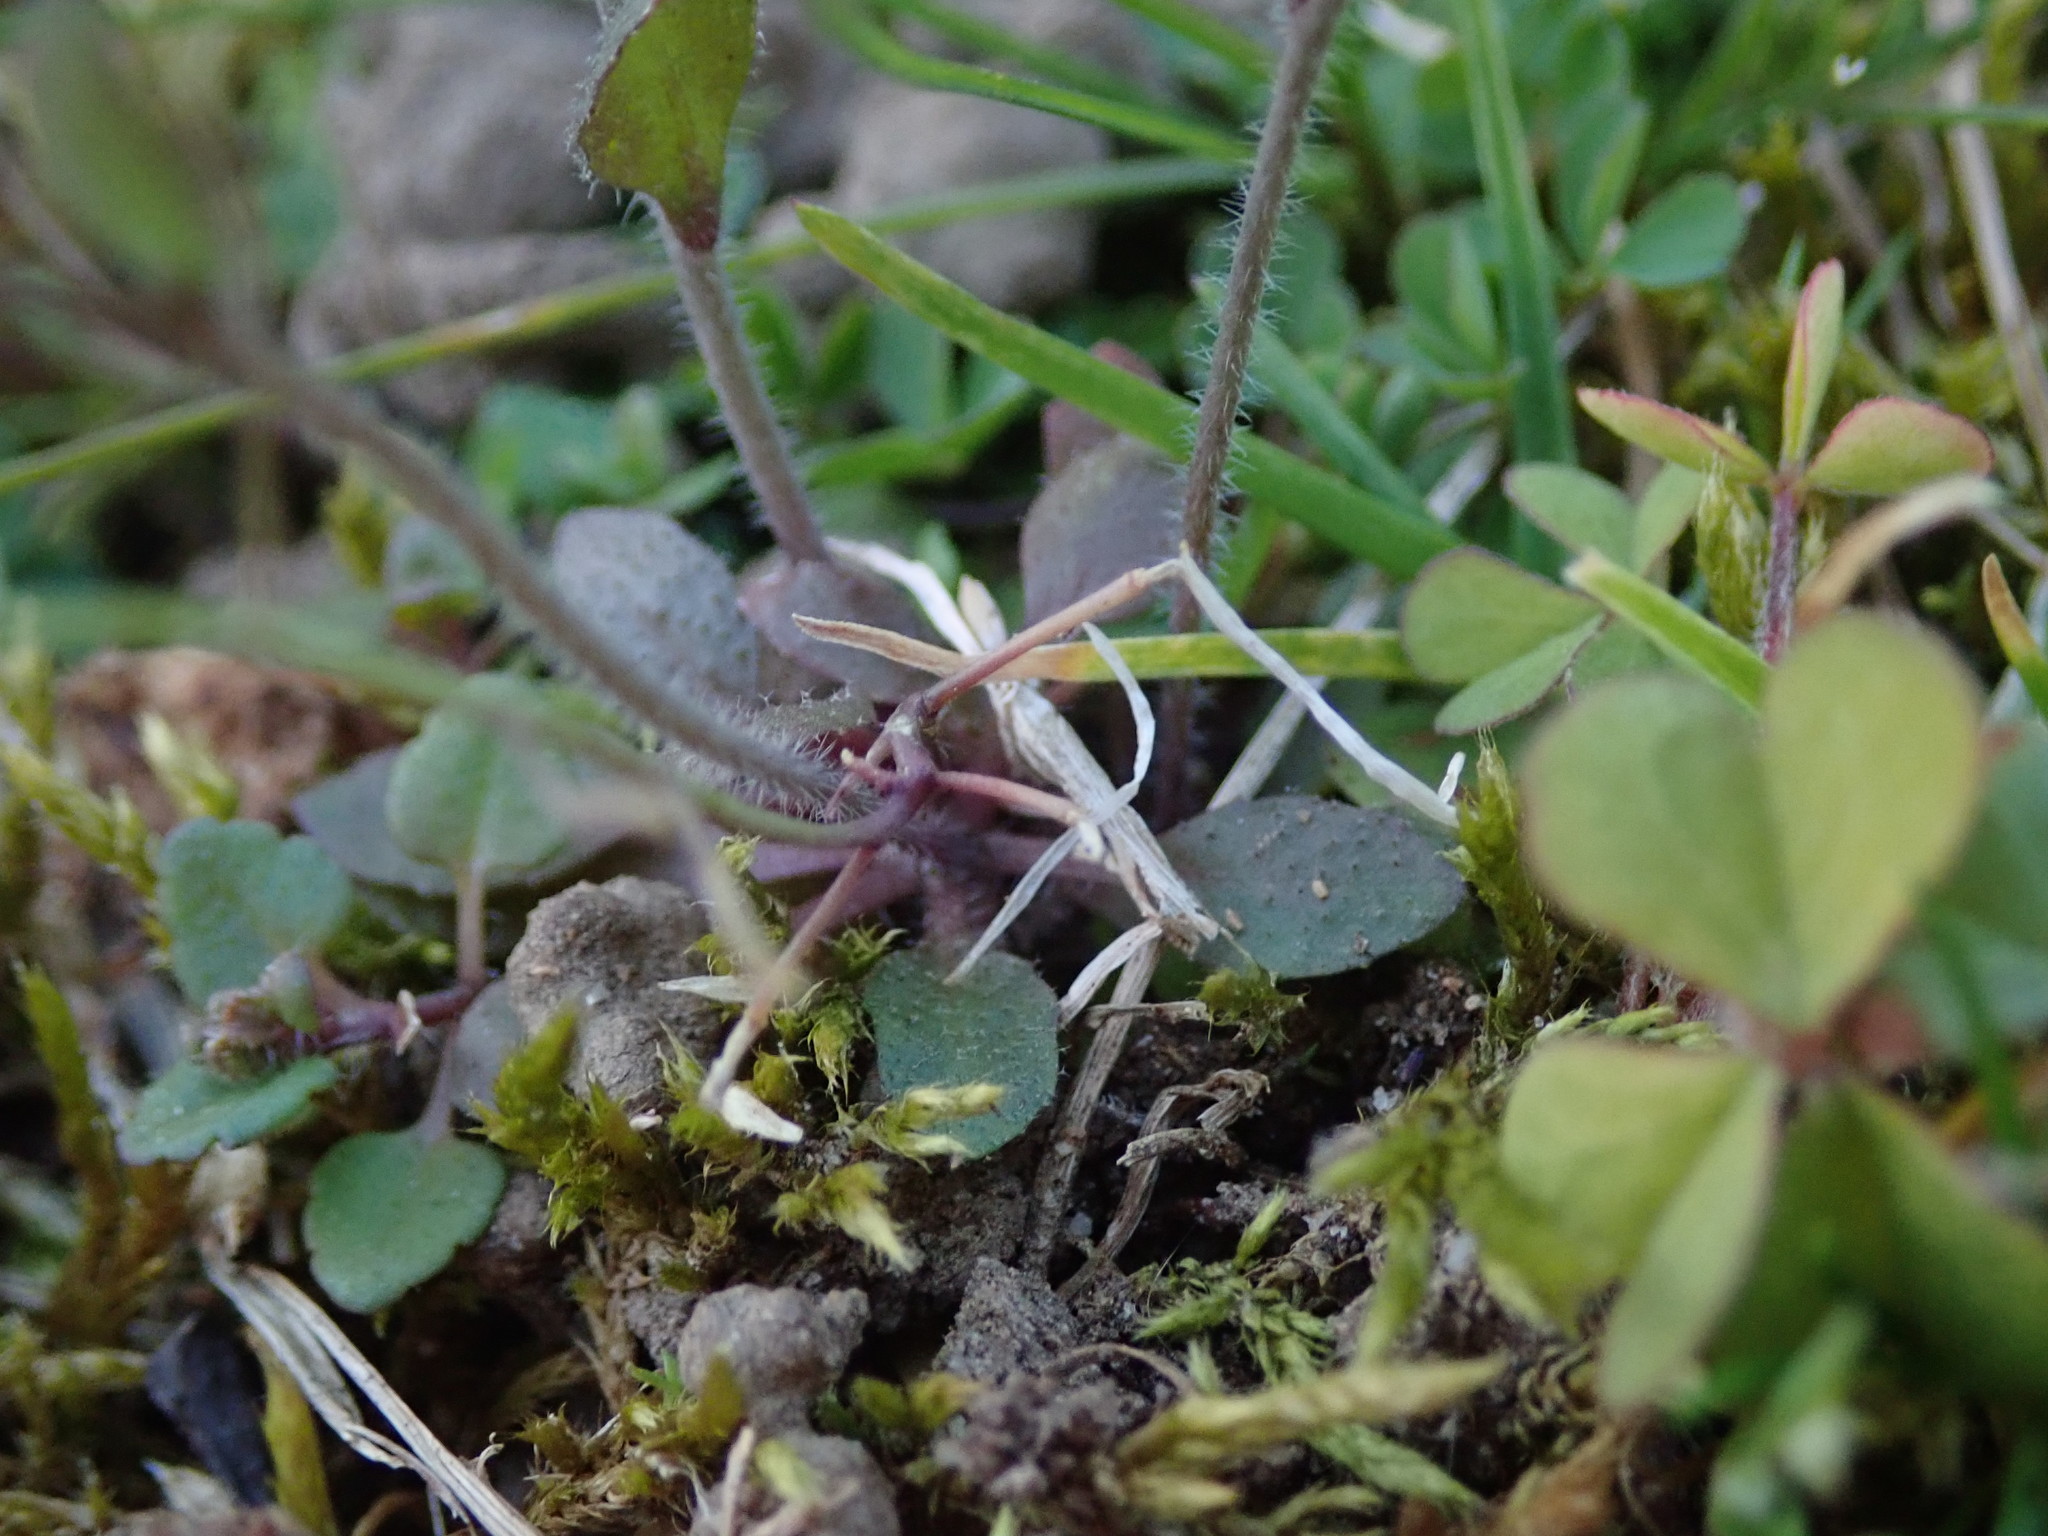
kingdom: Plantae
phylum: Tracheophyta
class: Magnoliopsida
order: Brassicales
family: Brassicaceae
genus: Arabidopsis
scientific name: Arabidopsis thaliana
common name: Thale cress
